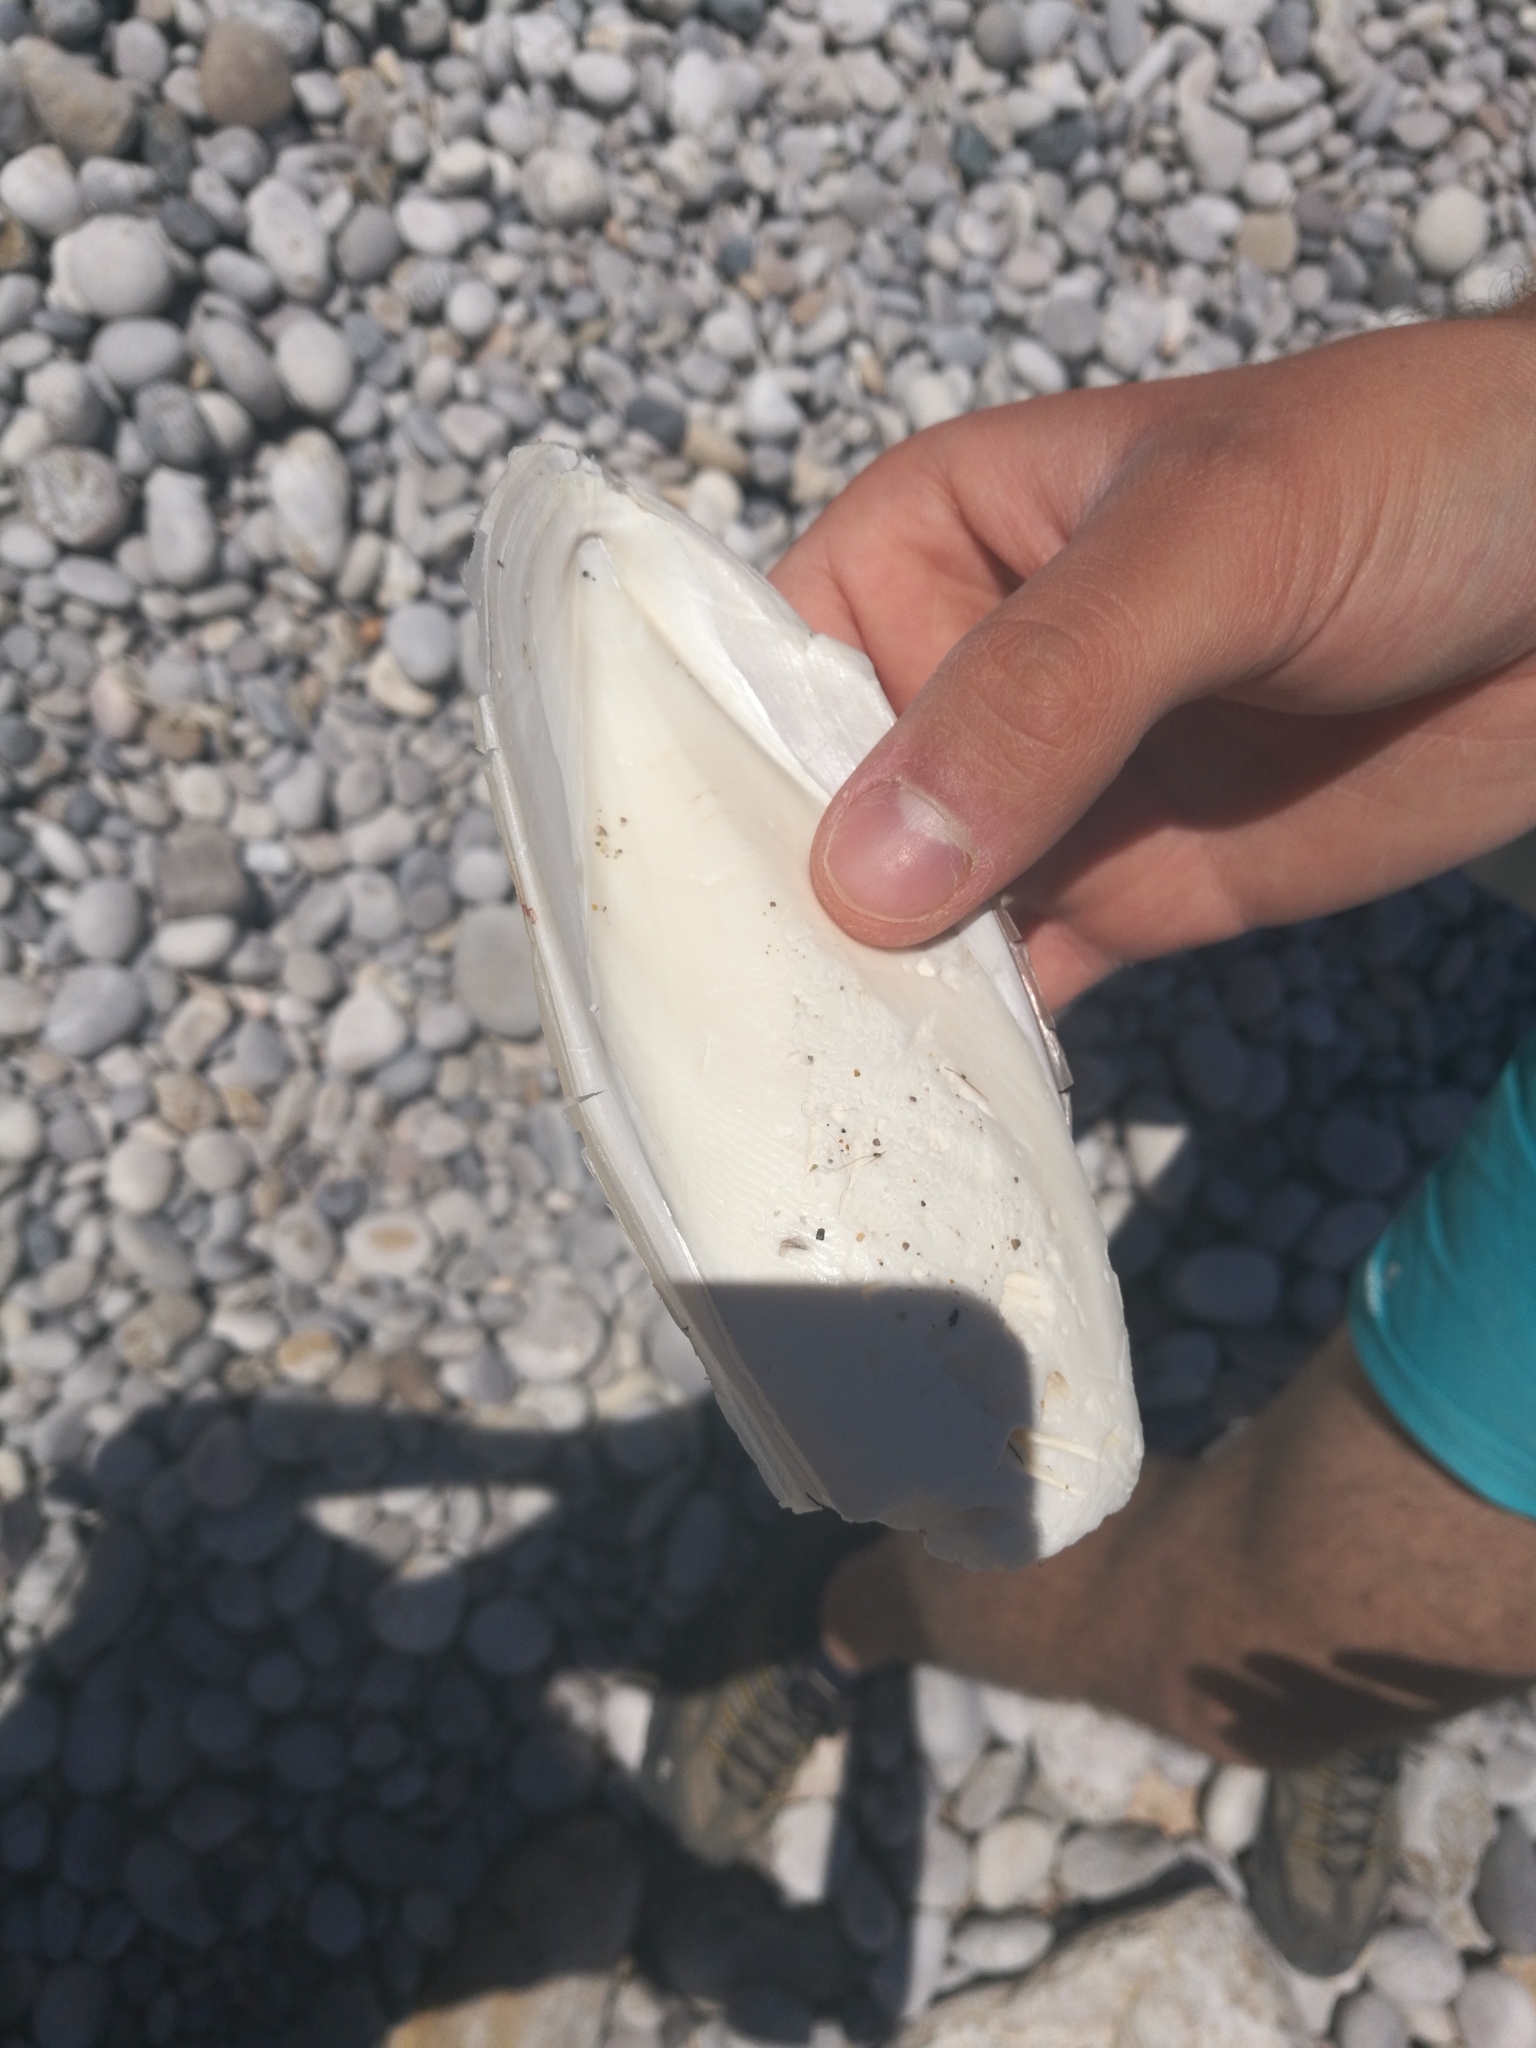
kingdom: Animalia
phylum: Mollusca
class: Cephalopoda
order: Sepiida
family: Sepiidae
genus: Sepia
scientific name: Sepia officinalis
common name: Common cuttlefish
